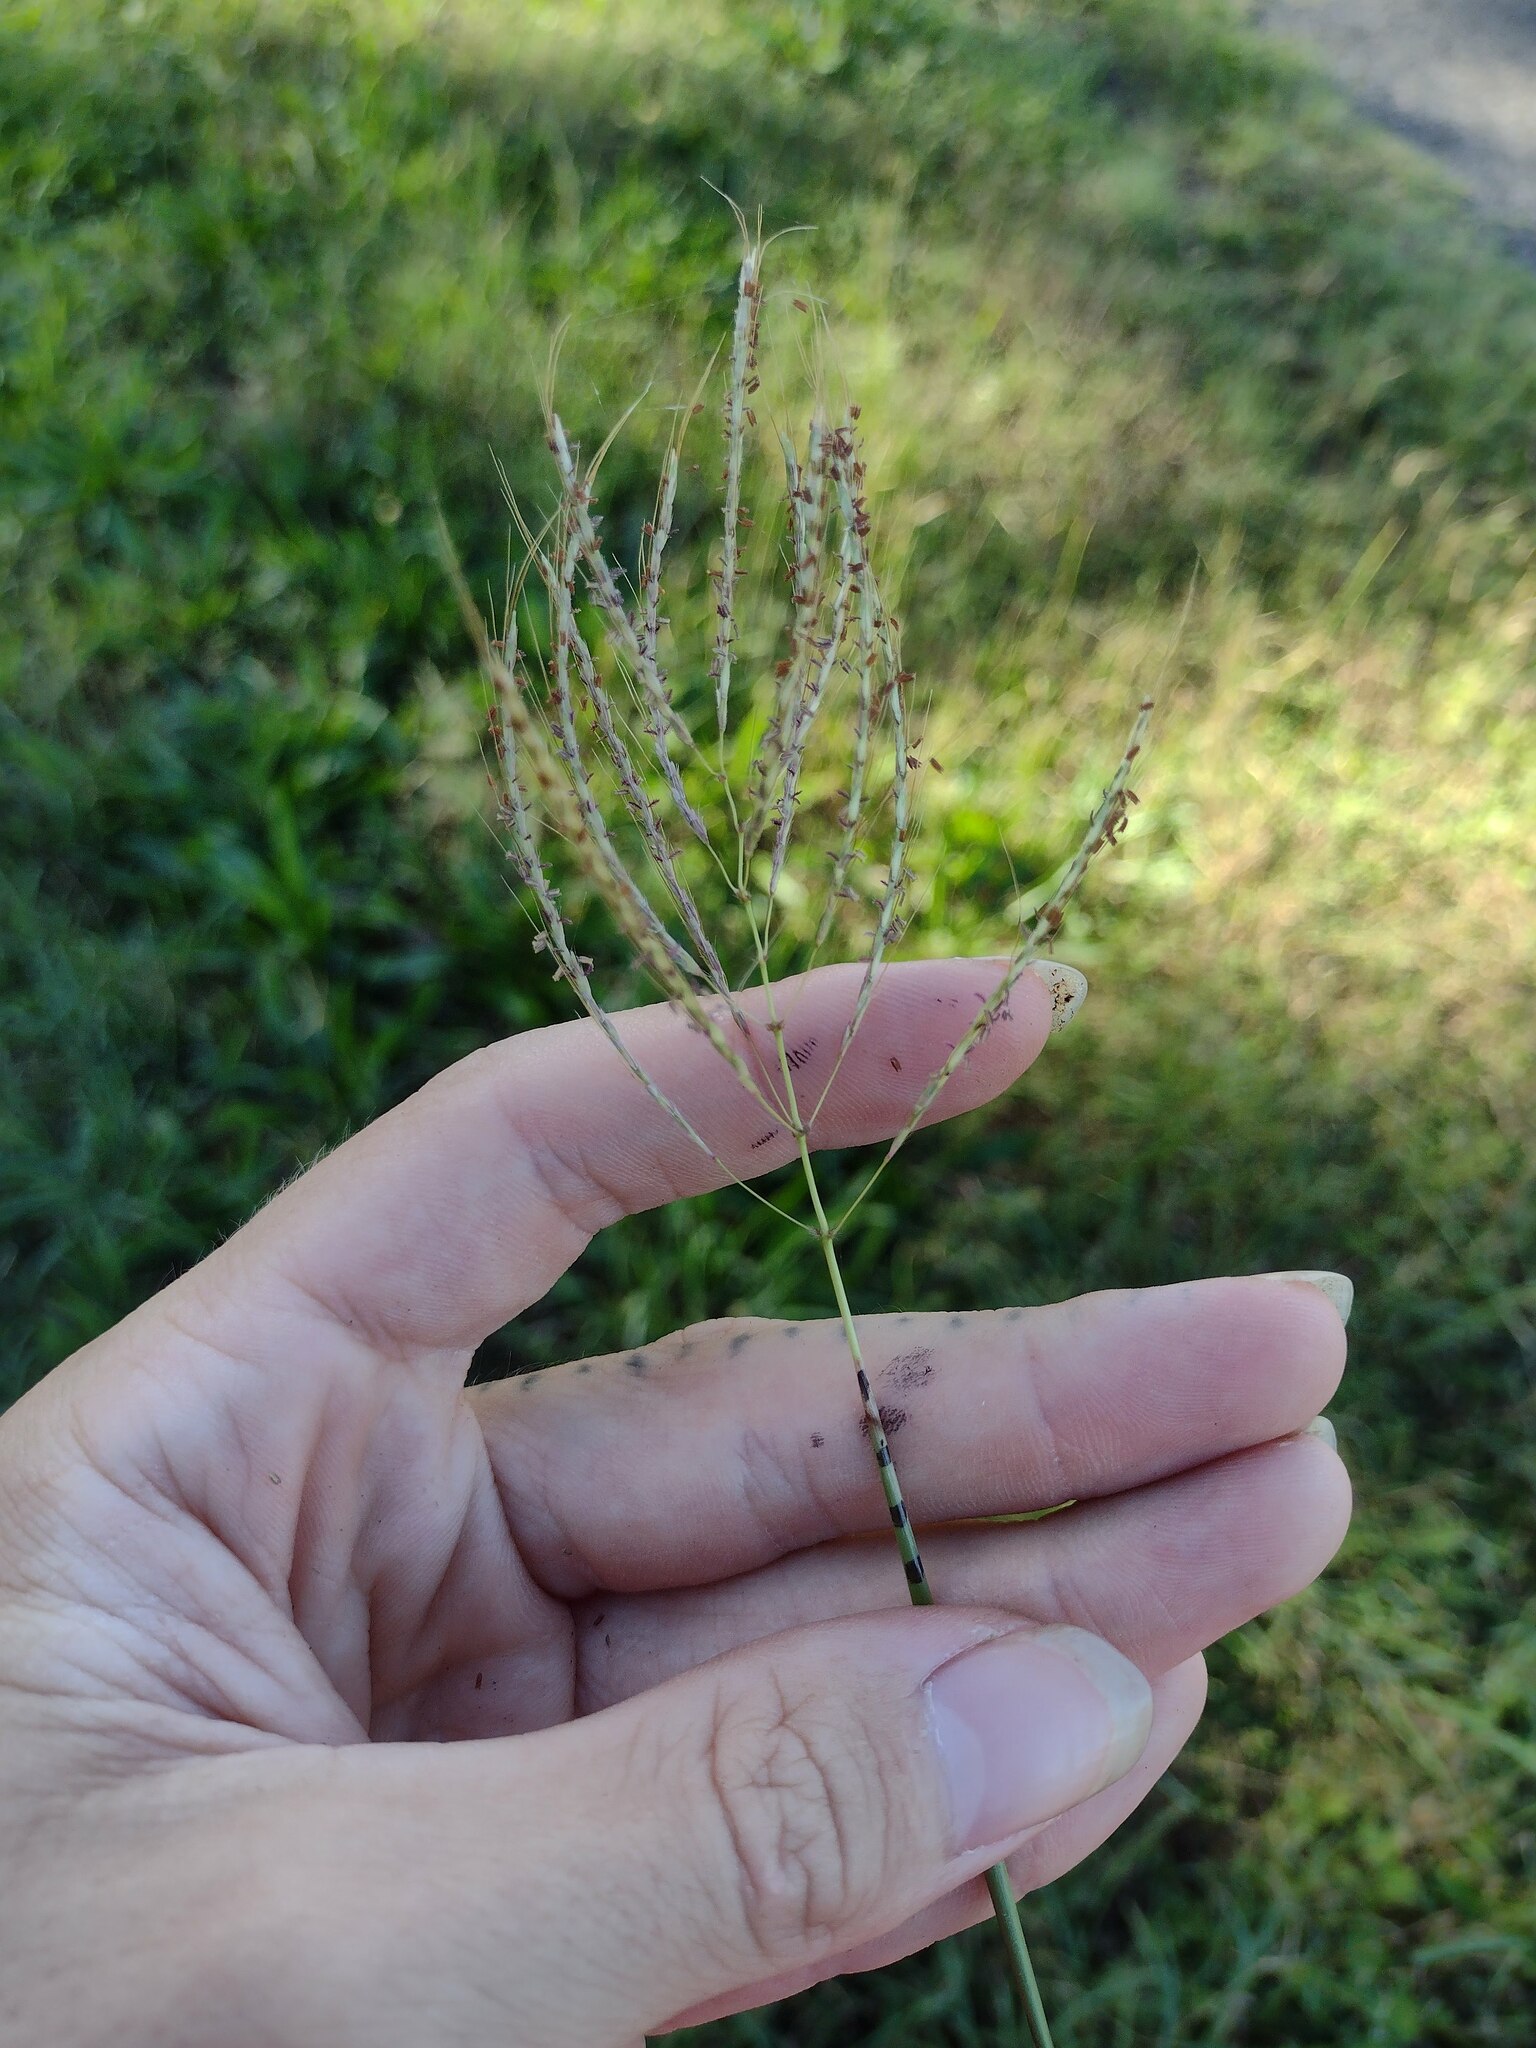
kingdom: Plantae
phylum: Tracheophyta
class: Liliopsida
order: Poales
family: Poaceae
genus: Dichanthium
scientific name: Dichanthium annulatum
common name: Kleberg's bluestem
